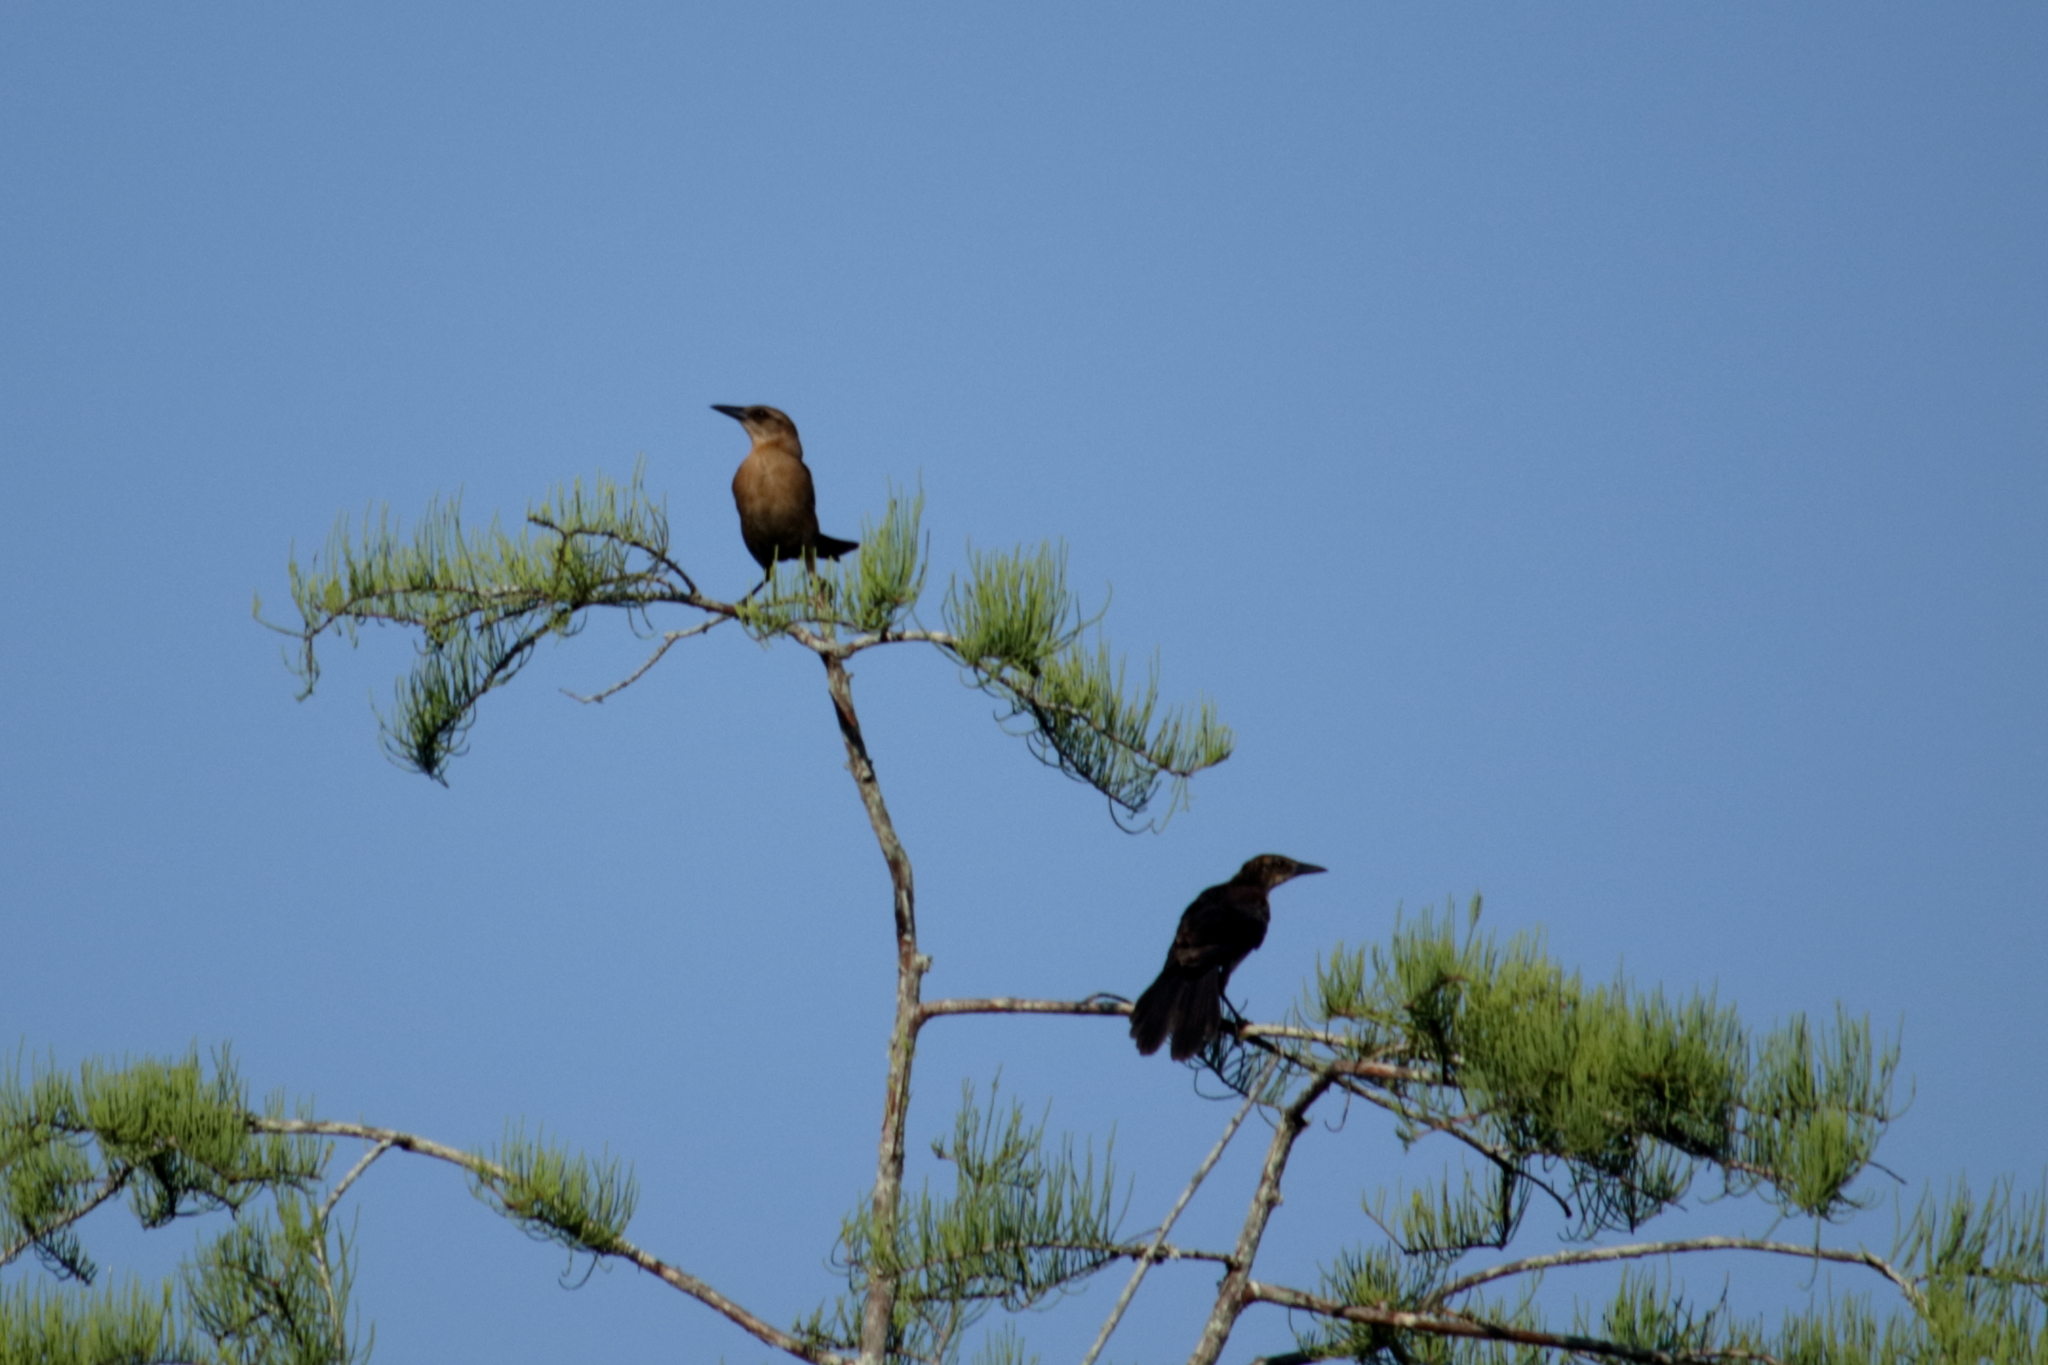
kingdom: Animalia
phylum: Chordata
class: Aves
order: Passeriformes
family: Icteridae
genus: Quiscalus
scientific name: Quiscalus major
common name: Boat-tailed grackle
